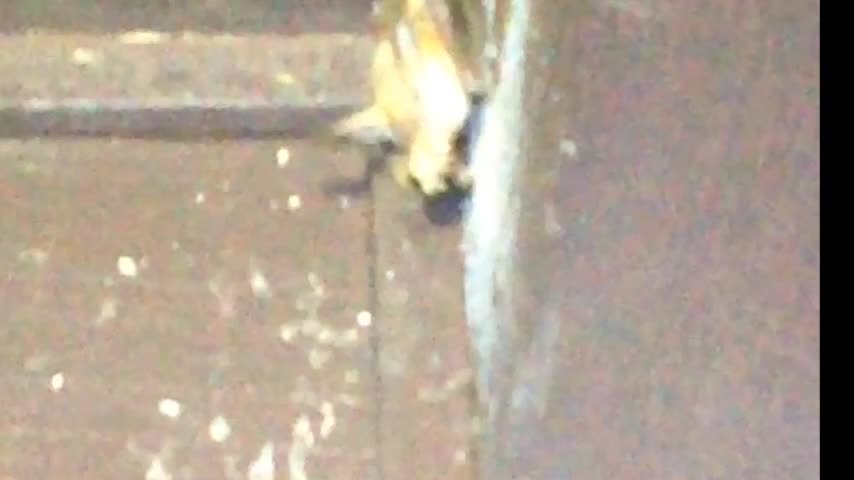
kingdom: Animalia
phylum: Chordata
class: Mammalia
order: Chiroptera
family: Vespertilionidae
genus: Antrozous
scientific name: Antrozous pallidus
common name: Pallid bat
